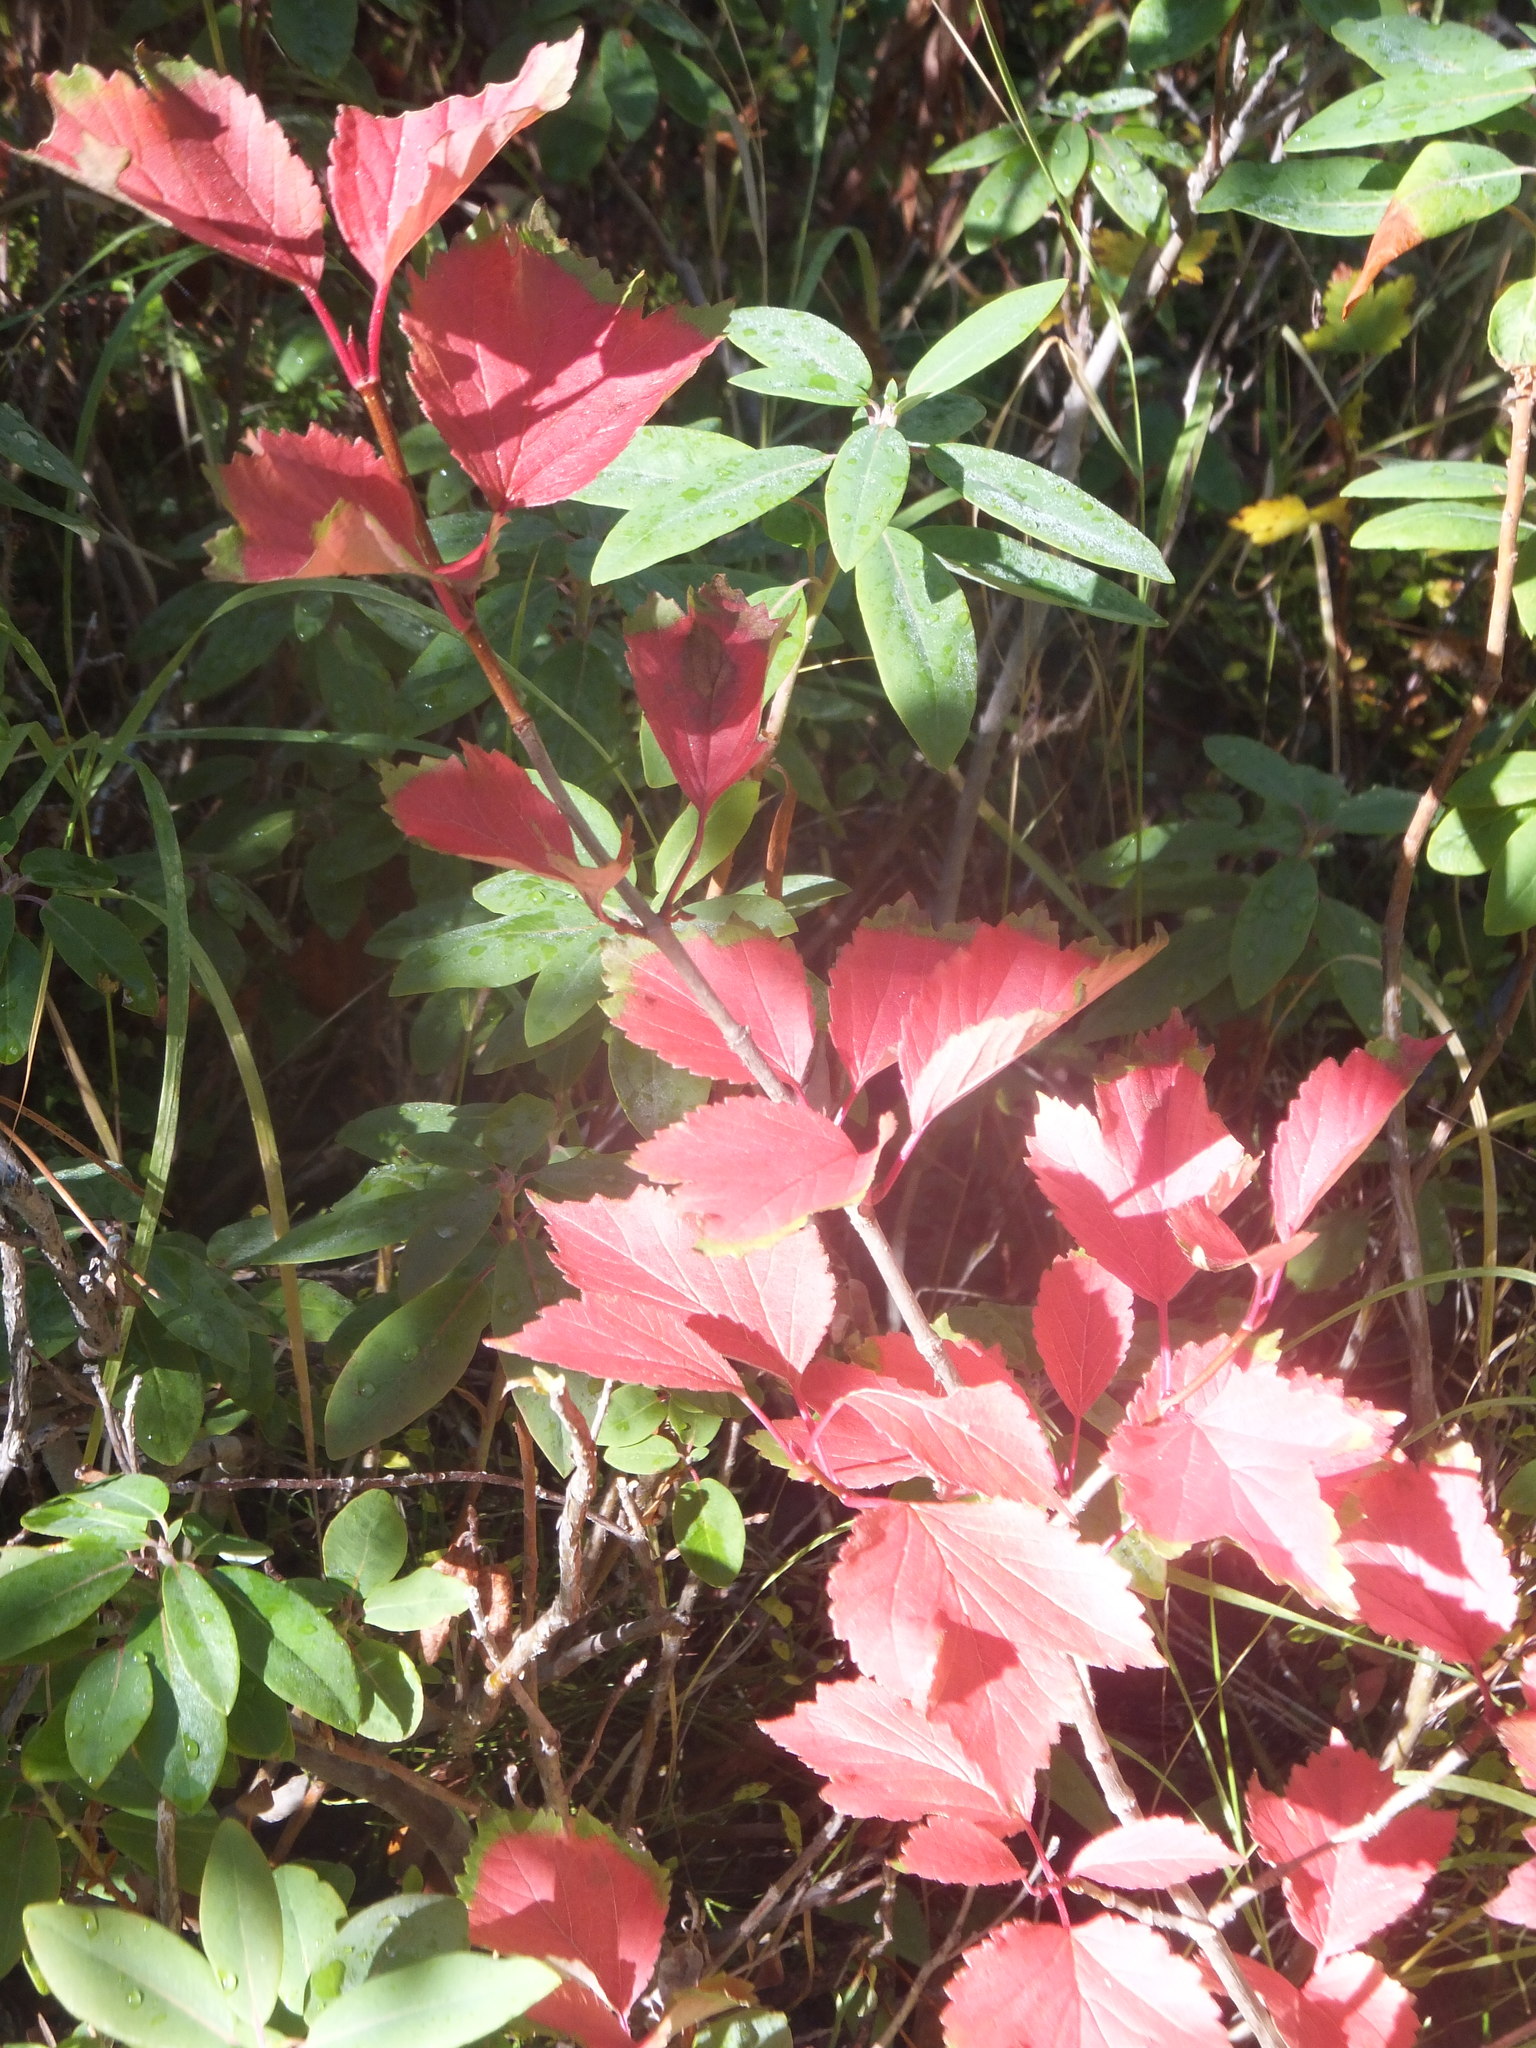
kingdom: Plantae
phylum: Tracheophyta
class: Magnoliopsida
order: Dipsacales
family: Viburnaceae
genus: Viburnum
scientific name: Viburnum edule
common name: Mooseberry
